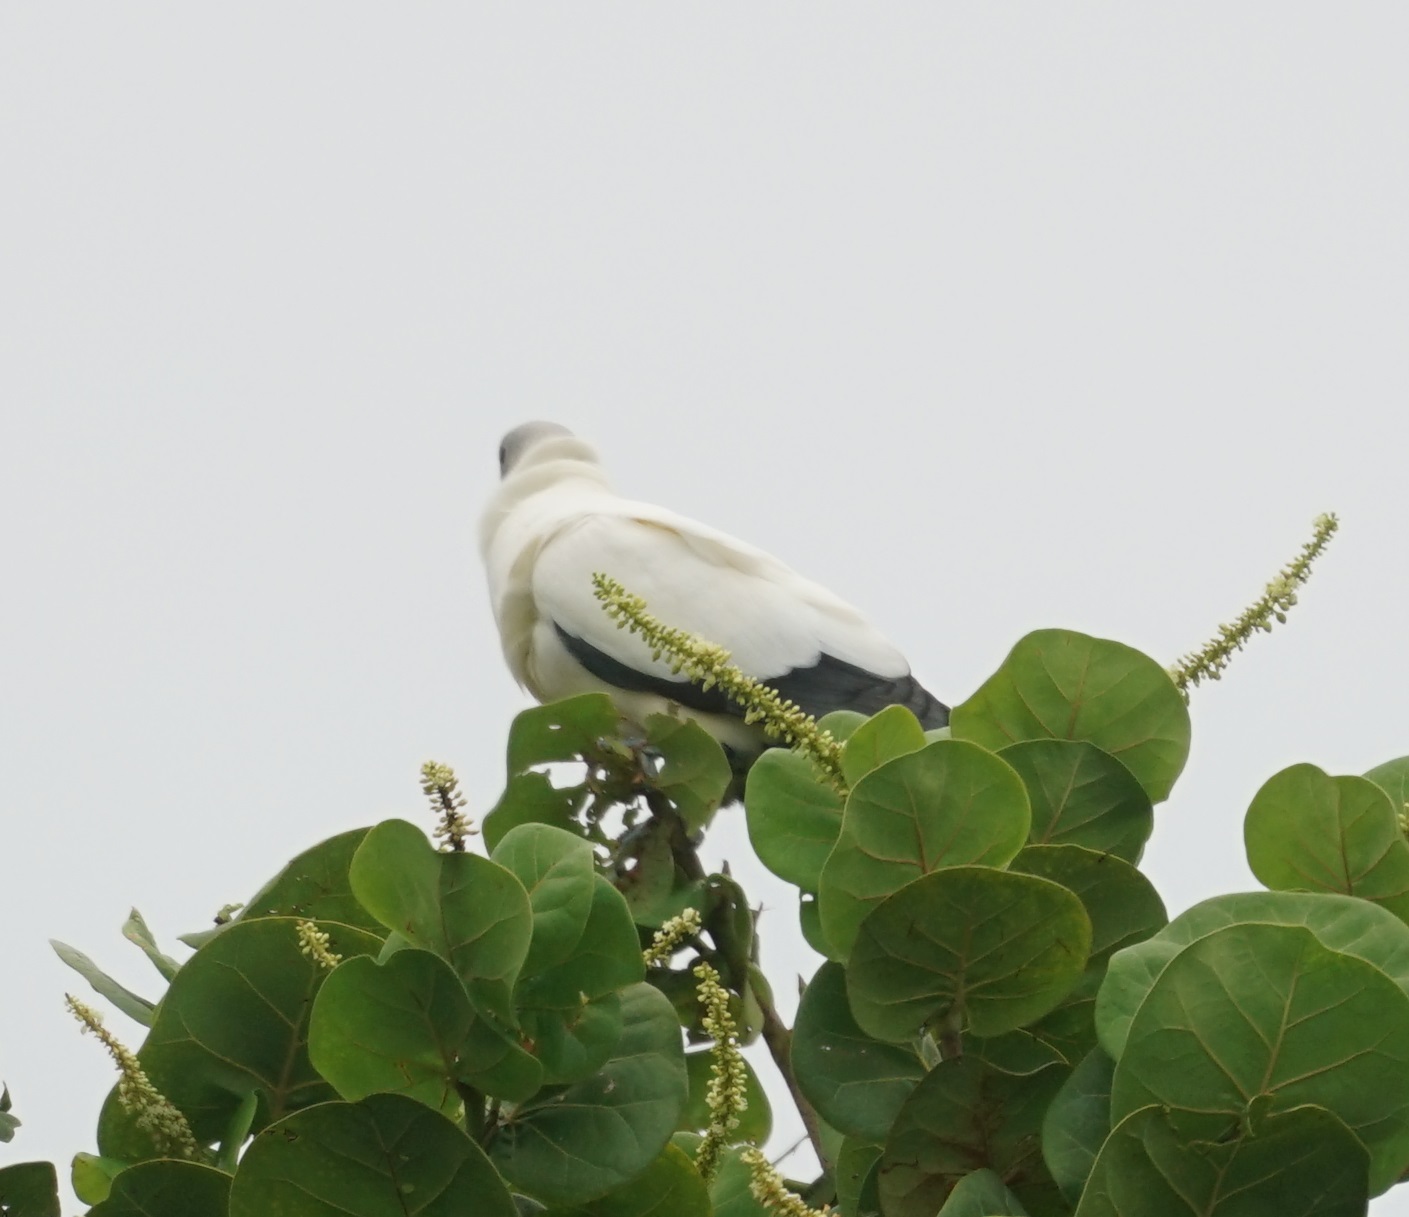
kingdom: Animalia
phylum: Chordata
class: Aves
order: Columbiformes
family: Columbidae
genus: Ducula
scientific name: Ducula spilorrhoa
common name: Torresian imperial pigeon
